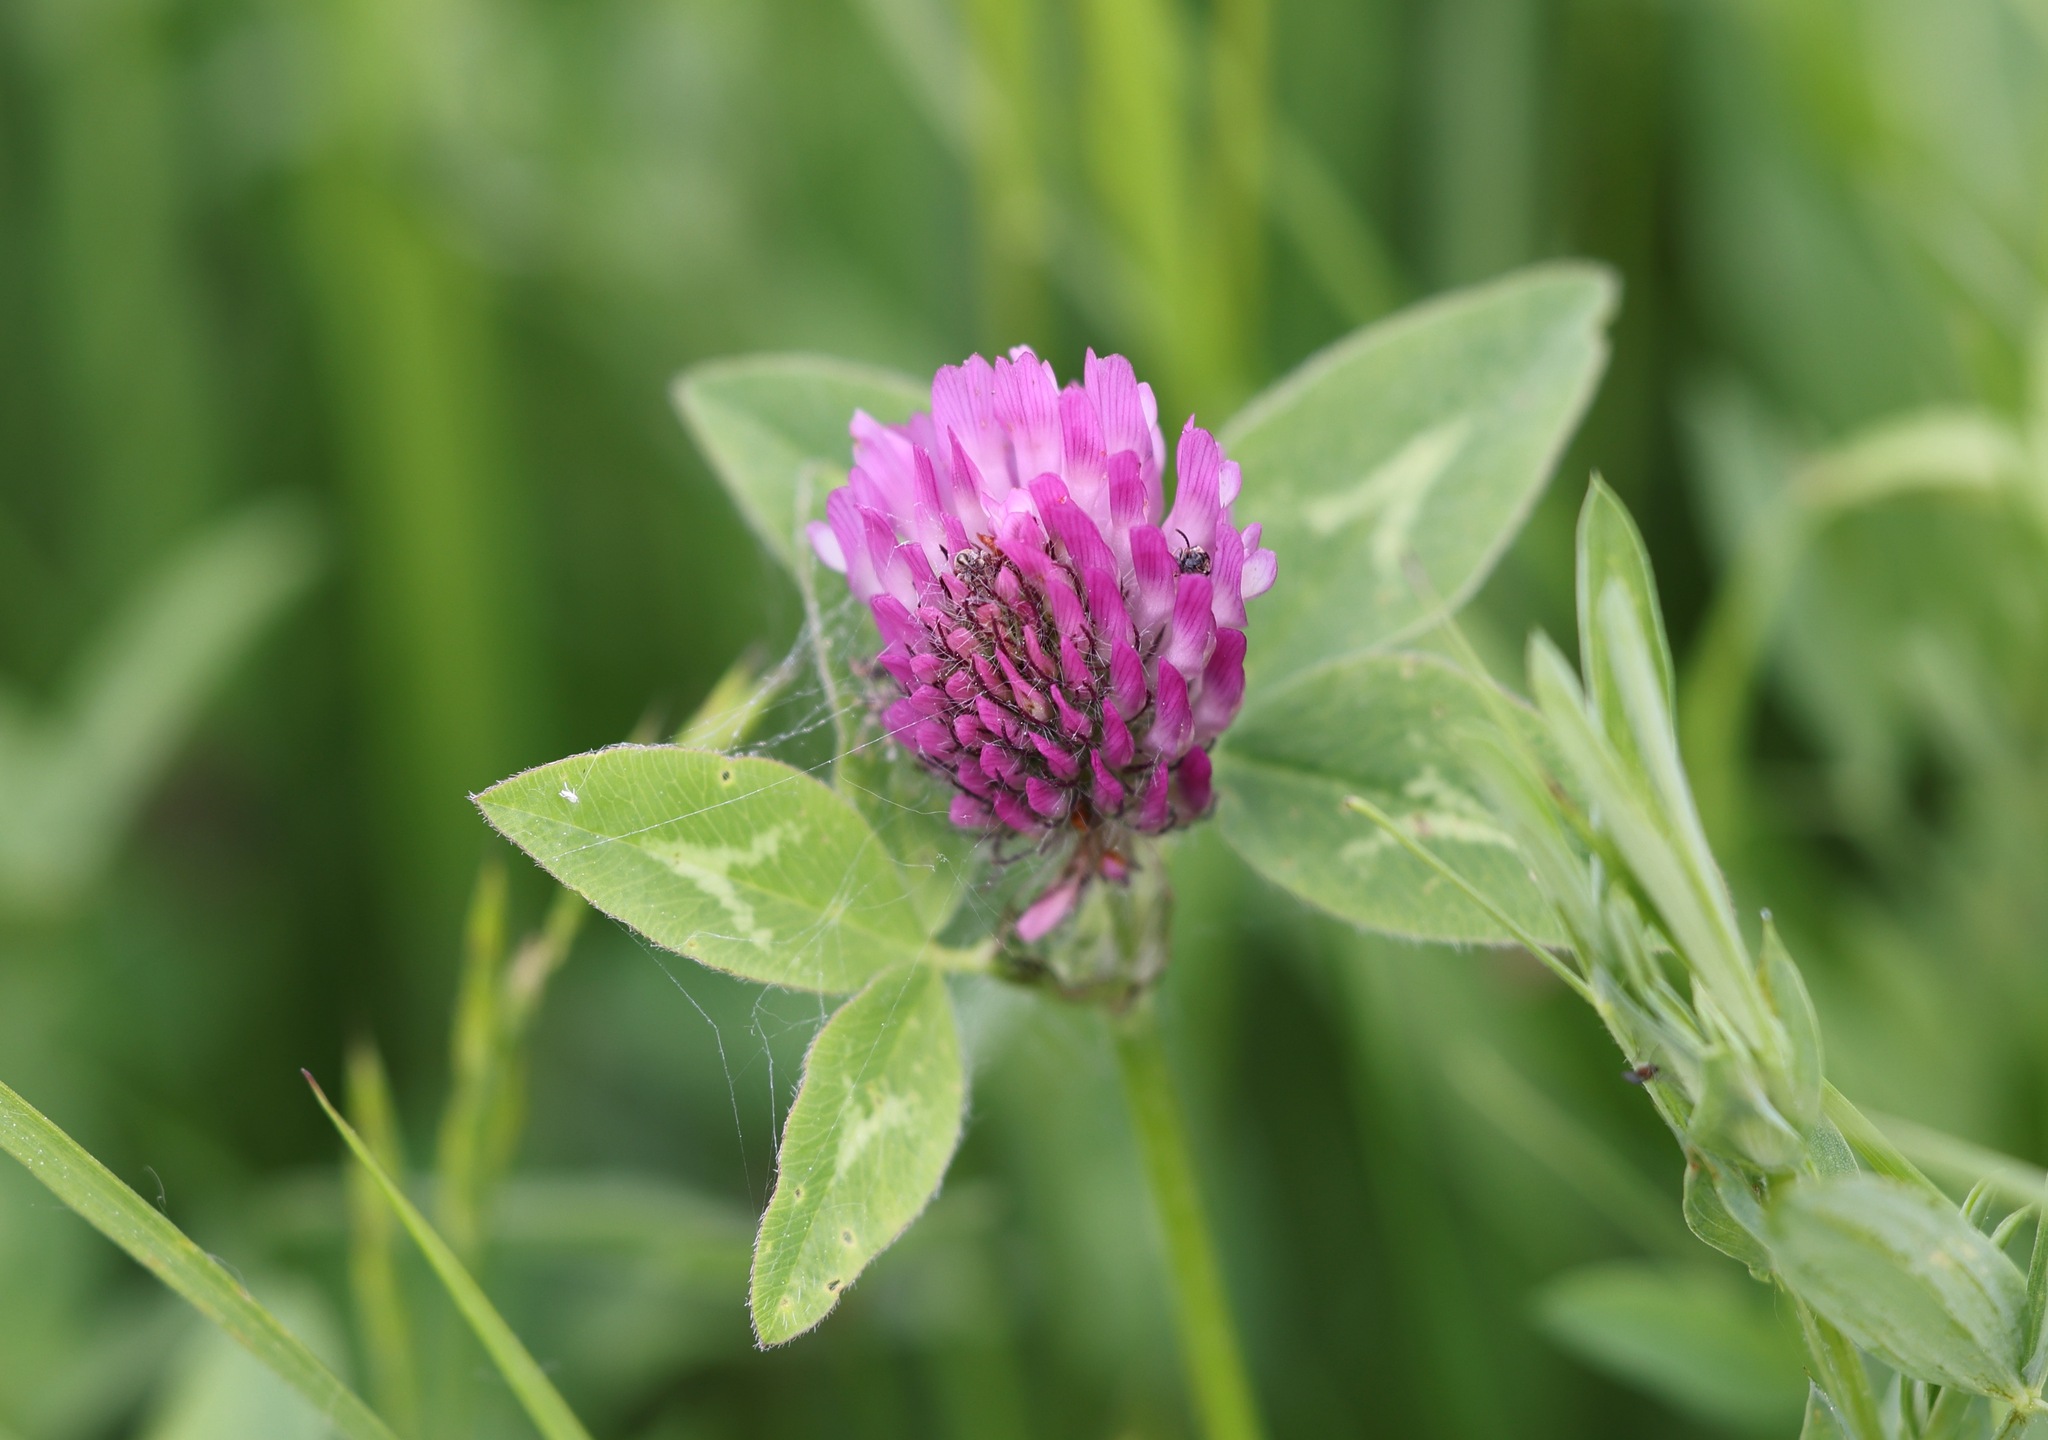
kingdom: Plantae
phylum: Tracheophyta
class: Magnoliopsida
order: Fabales
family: Fabaceae
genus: Trifolium
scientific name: Trifolium pratense
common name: Red clover
